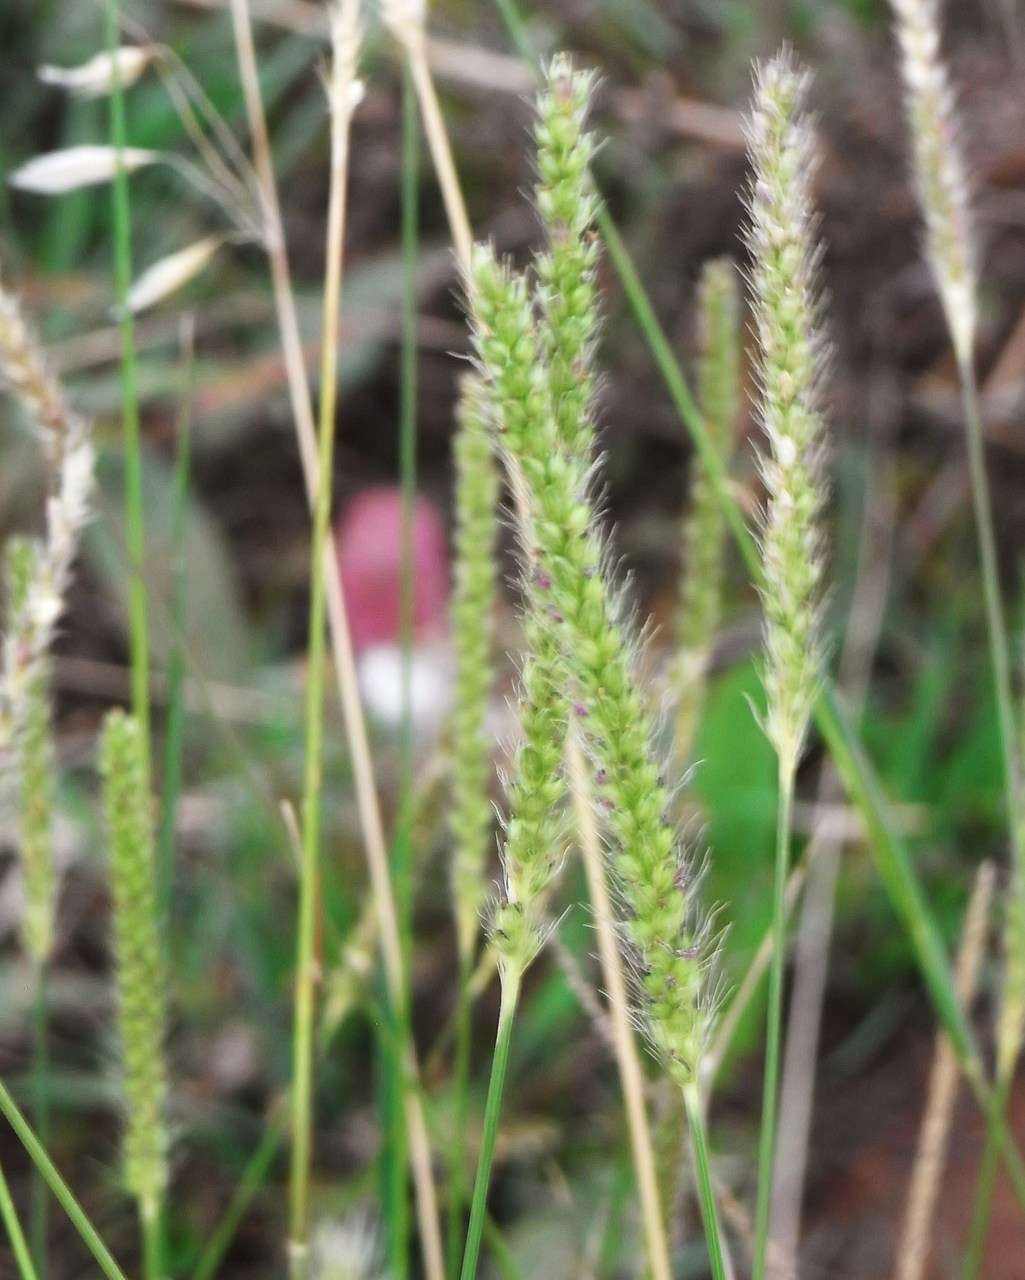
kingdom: Plantae
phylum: Tracheophyta
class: Liliopsida
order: Poales
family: Poaceae
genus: Setaria
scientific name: Setaria parviflora
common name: Knotroot bristle-grass
